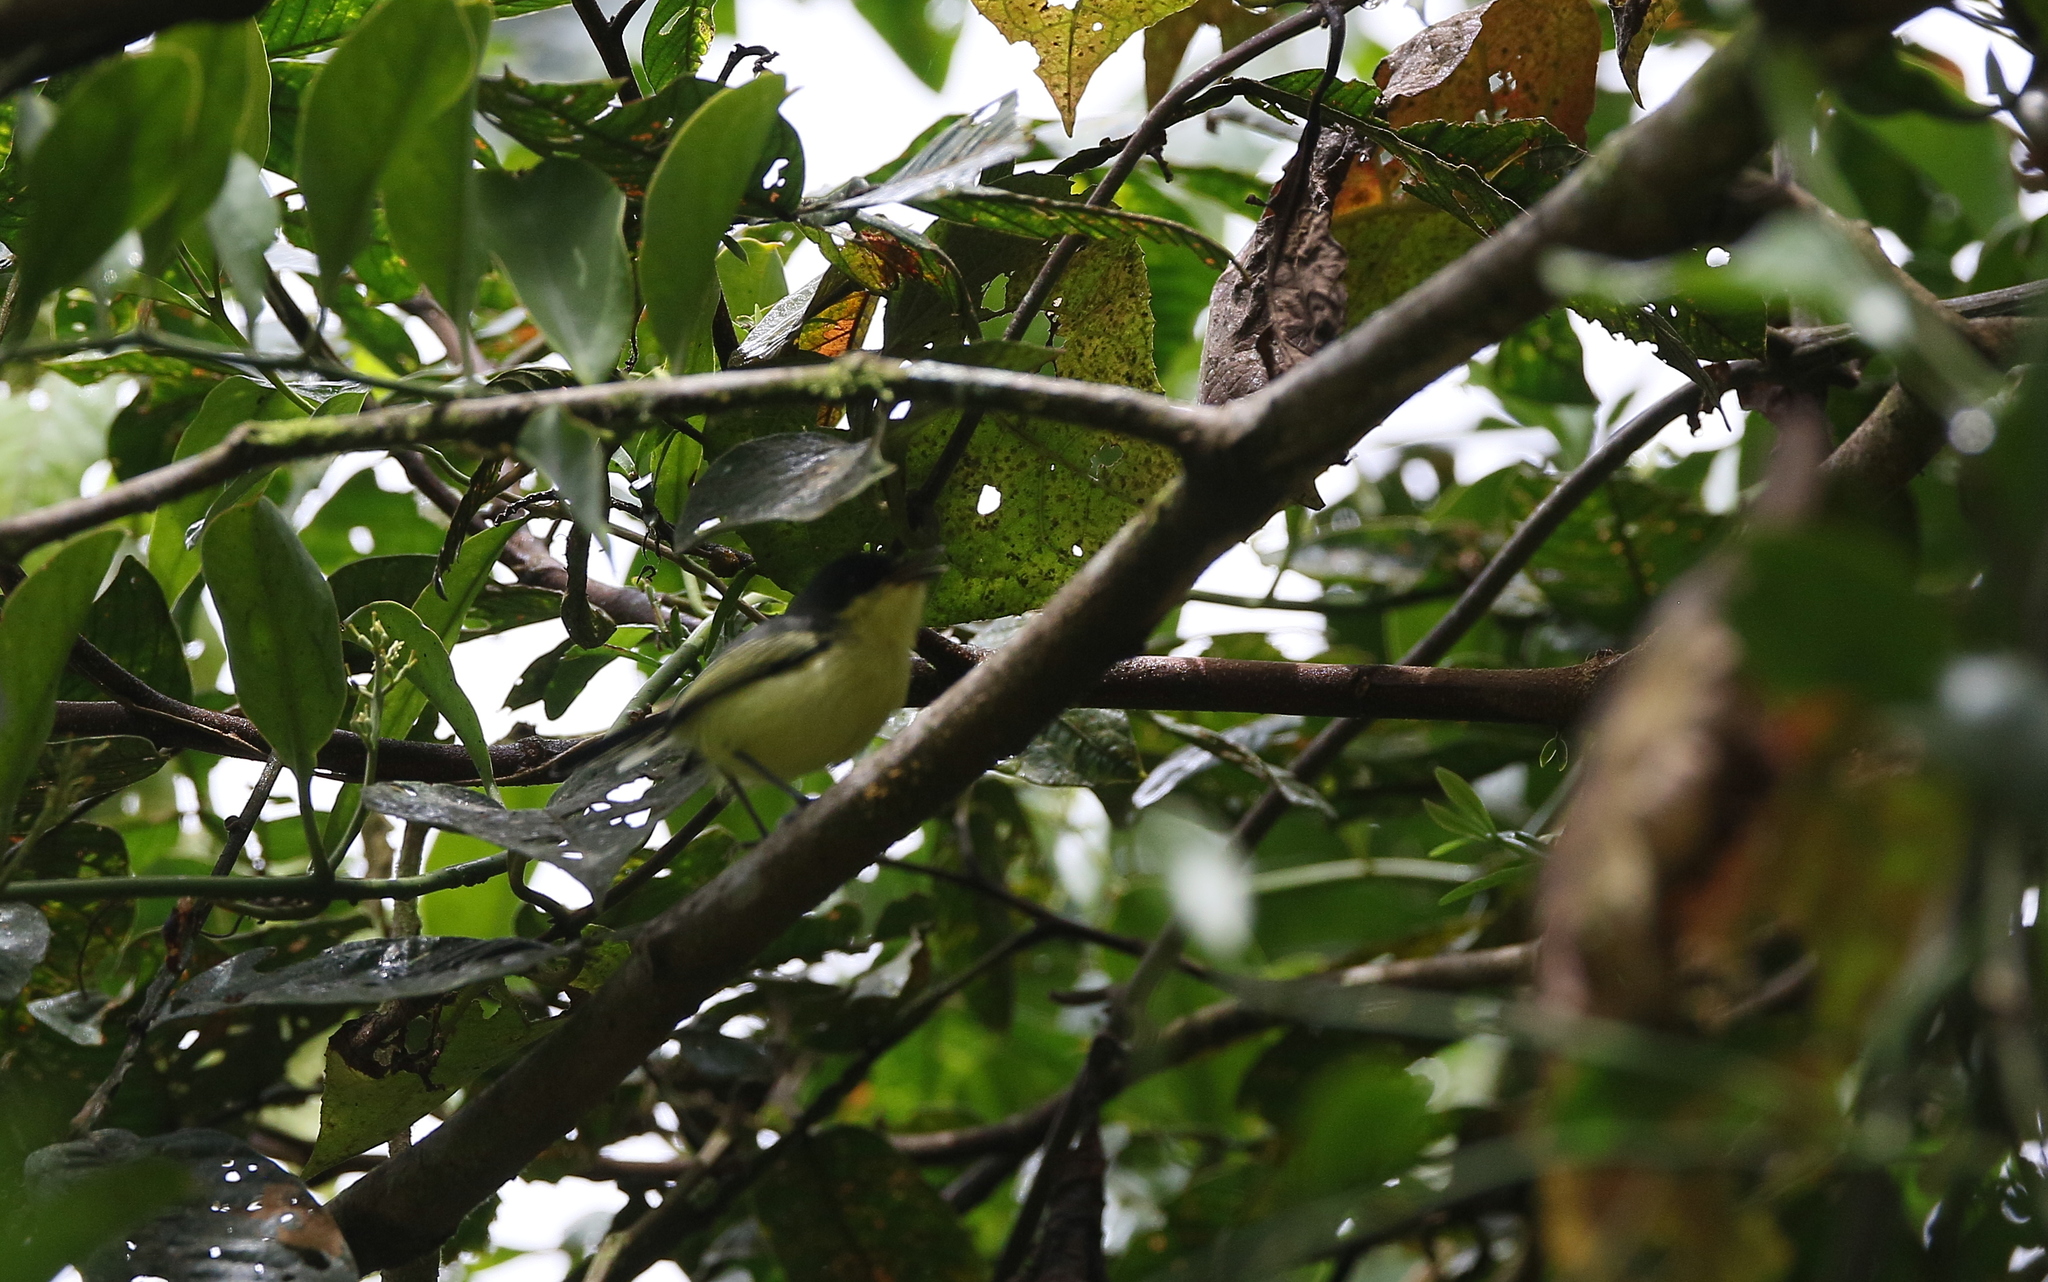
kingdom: Animalia
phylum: Chordata
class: Aves
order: Passeriformes
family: Tyrannidae
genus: Todirostrum
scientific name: Todirostrum cinereum
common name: Common tody-flycatcher
